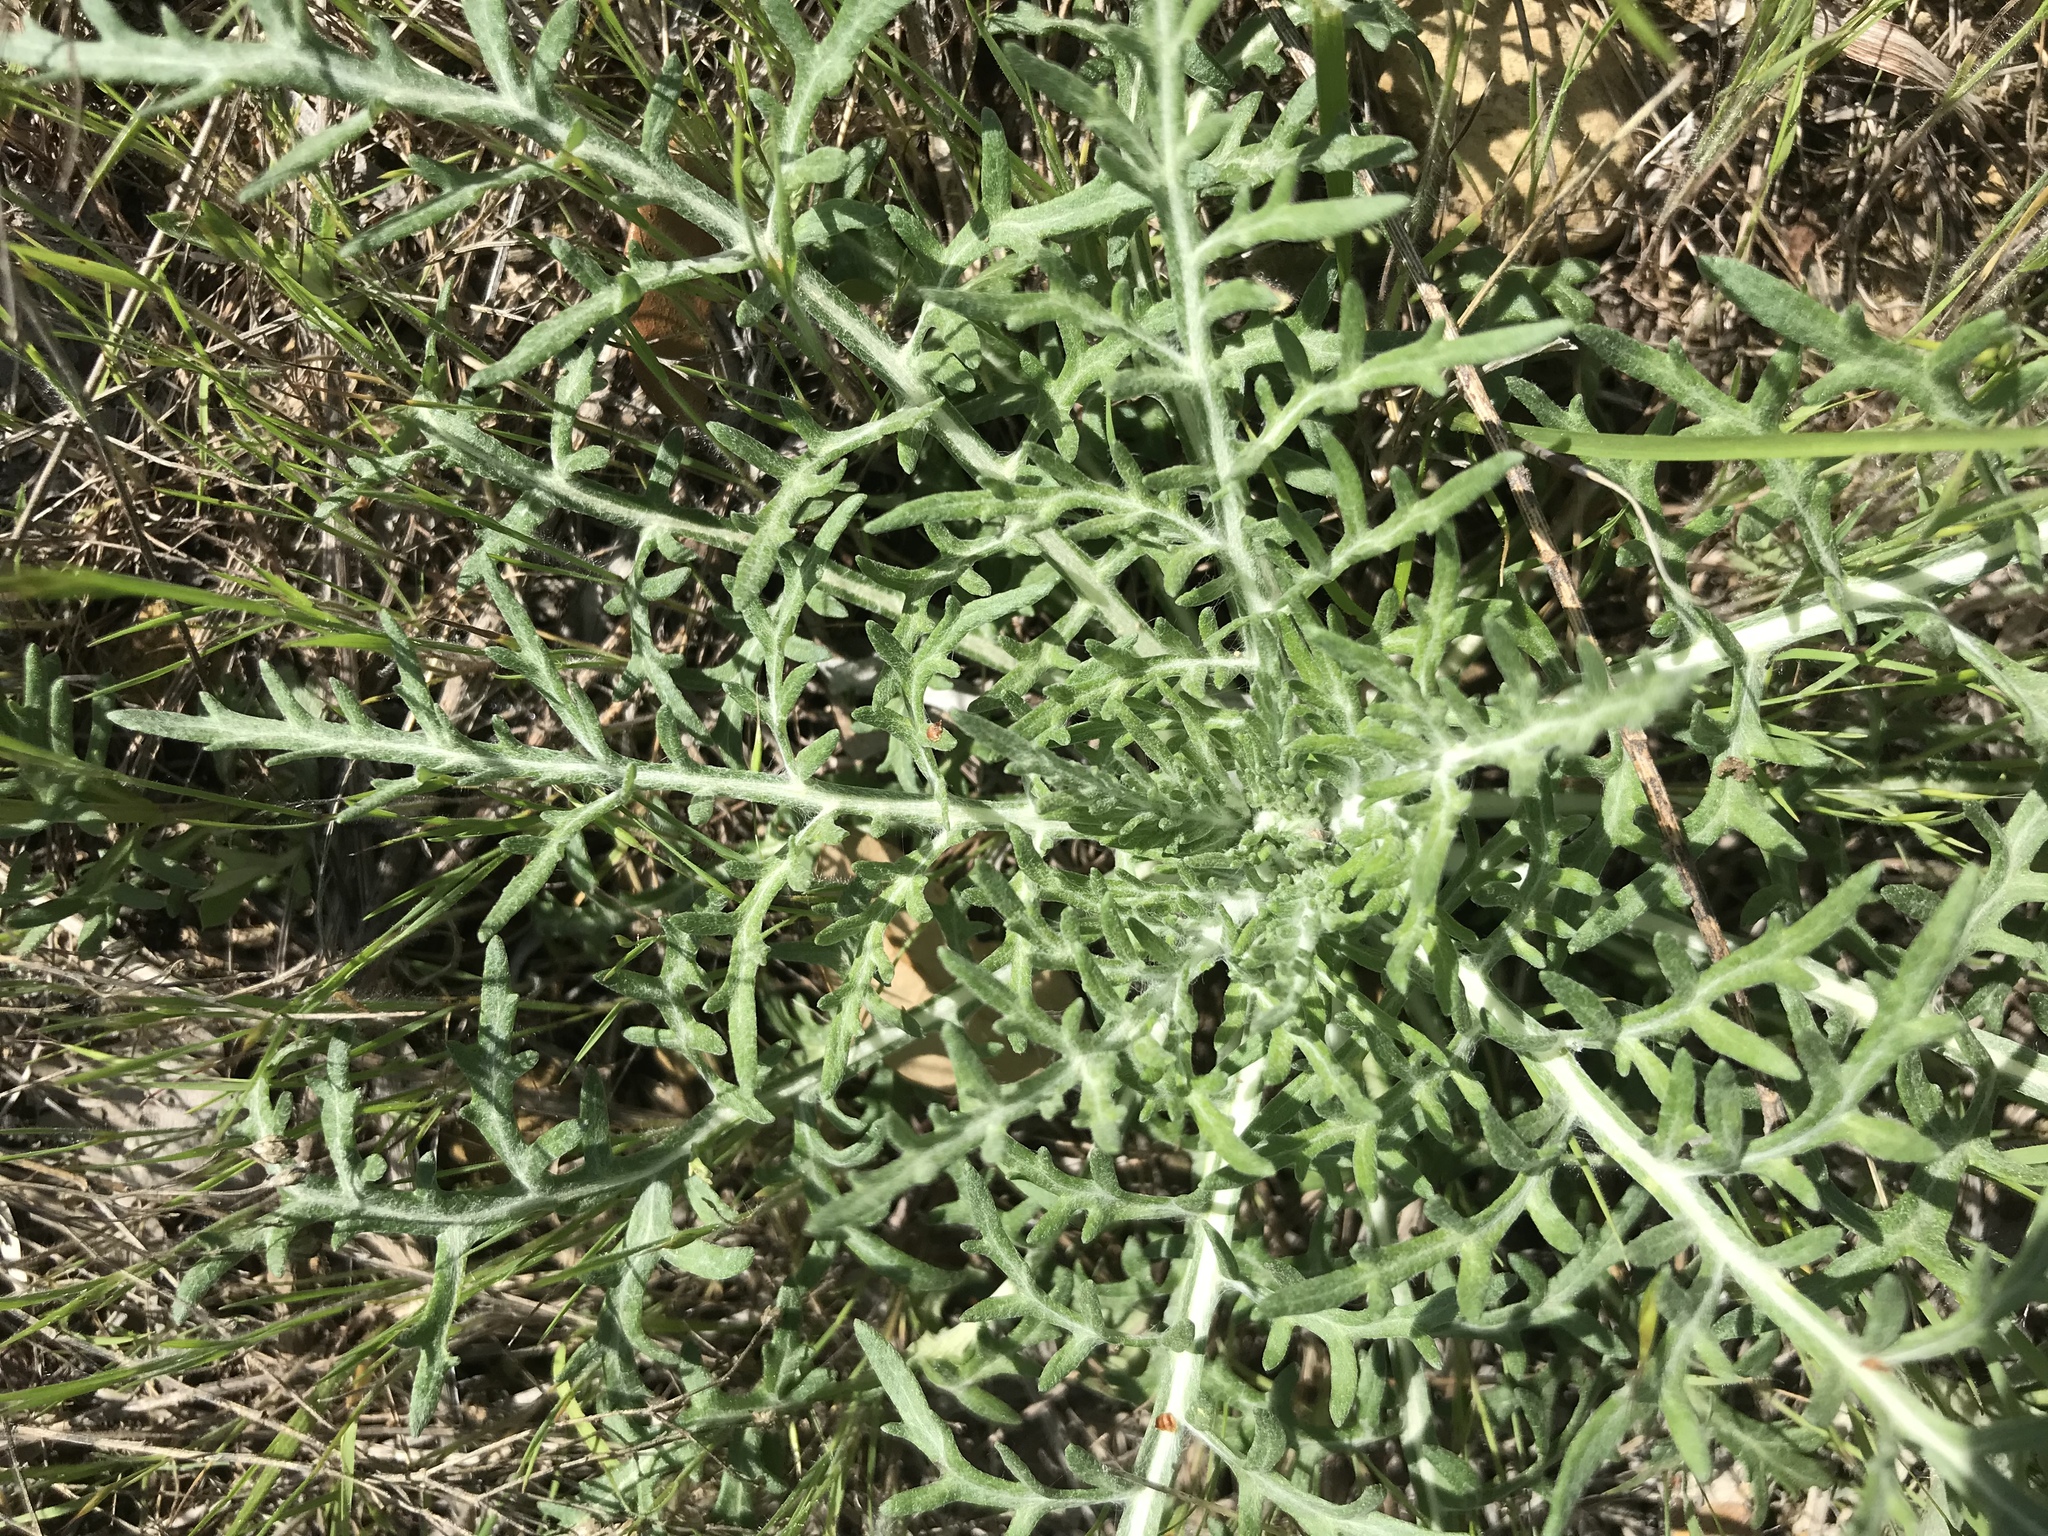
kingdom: Plantae
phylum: Tracheophyta
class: Magnoliopsida
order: Asterales
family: Asteraceae
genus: Hymenopappus
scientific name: Hymenopappus scabiosaeus
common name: Carolina woollywhite
